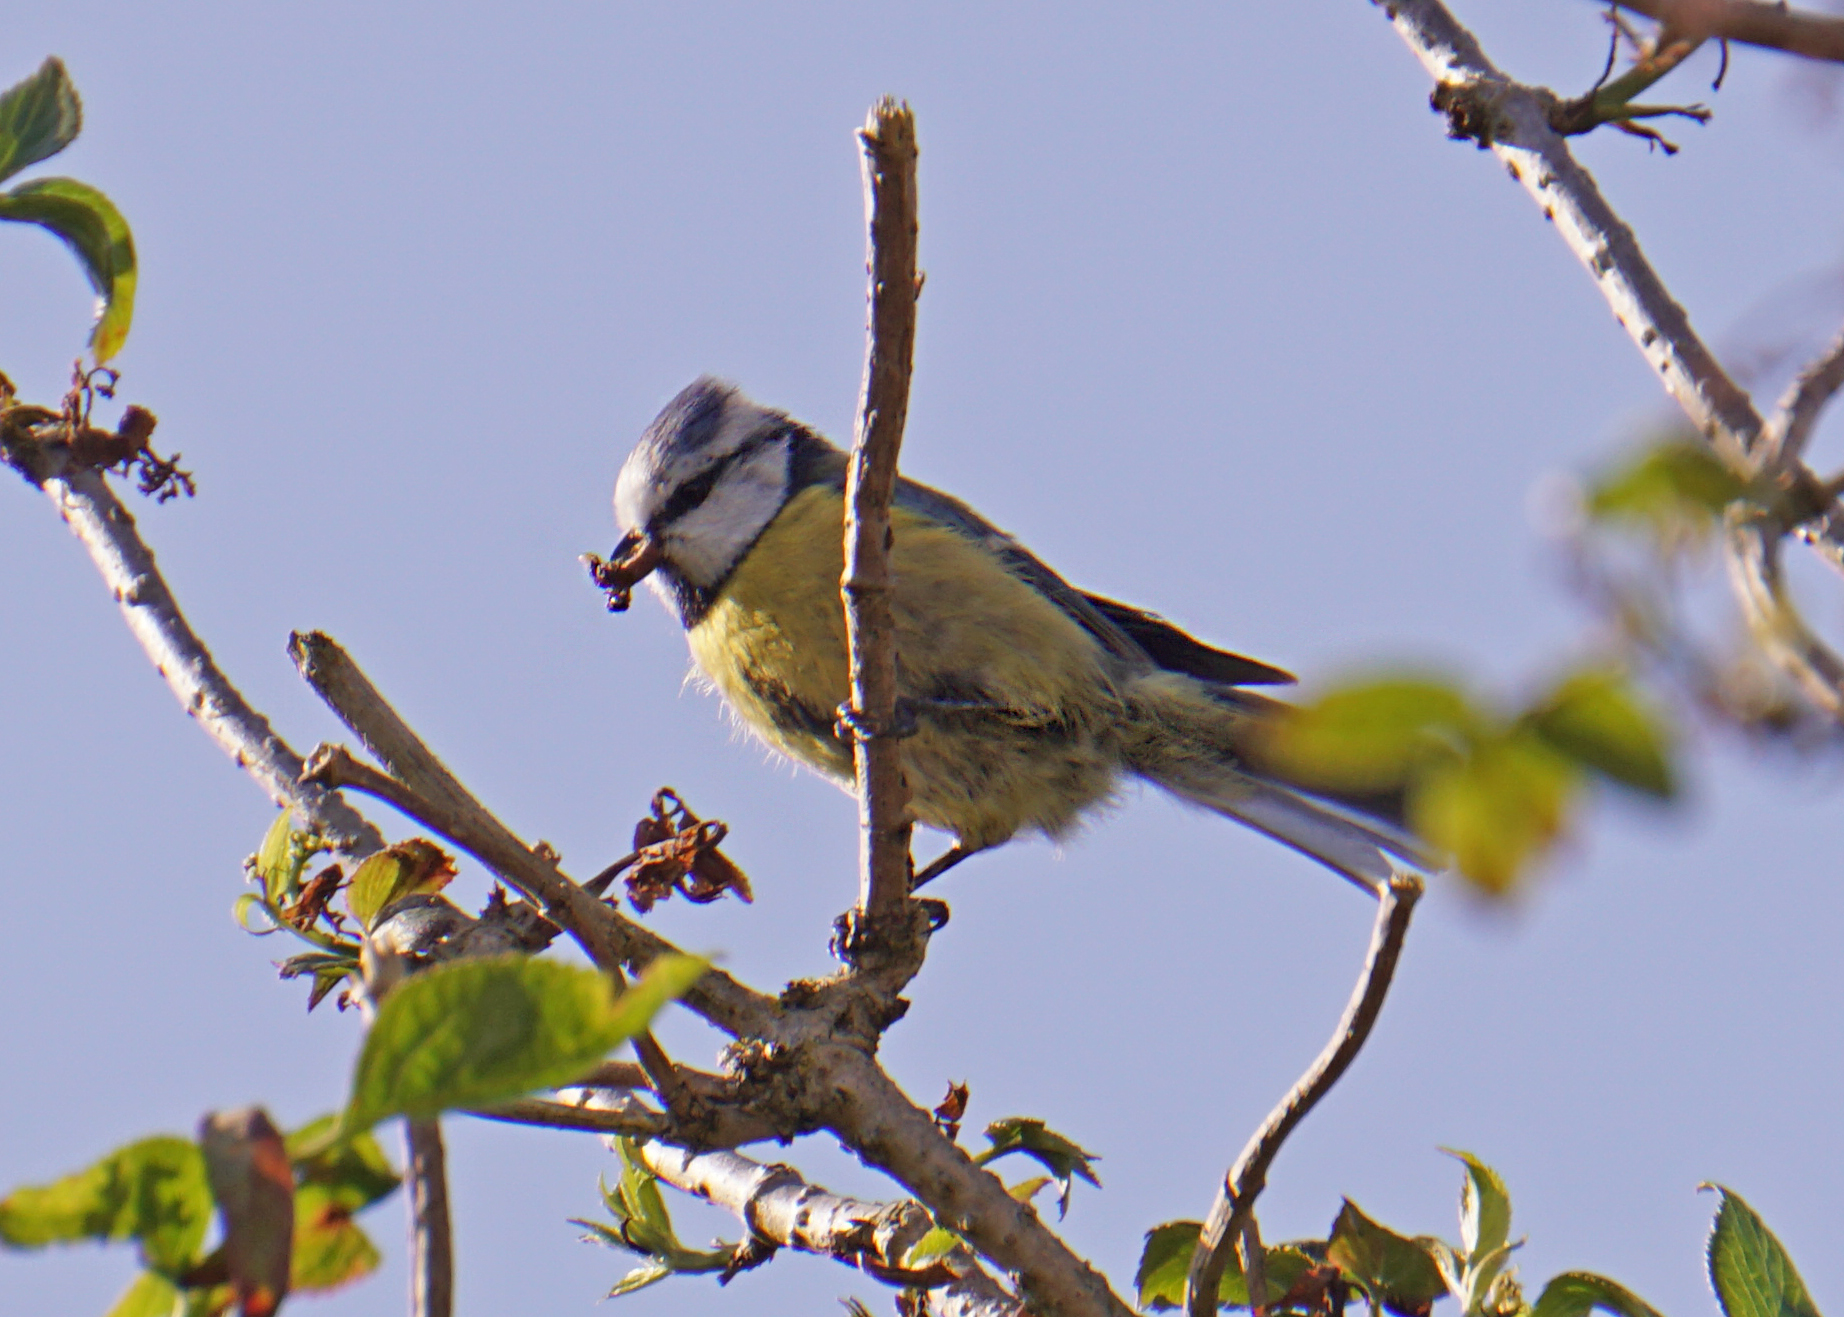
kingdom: Animalia
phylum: Chordata
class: Aves
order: Passeriformes
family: Paridae
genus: Cyanistes
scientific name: Cyanistes caeruleus
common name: Eurasian blue tit
